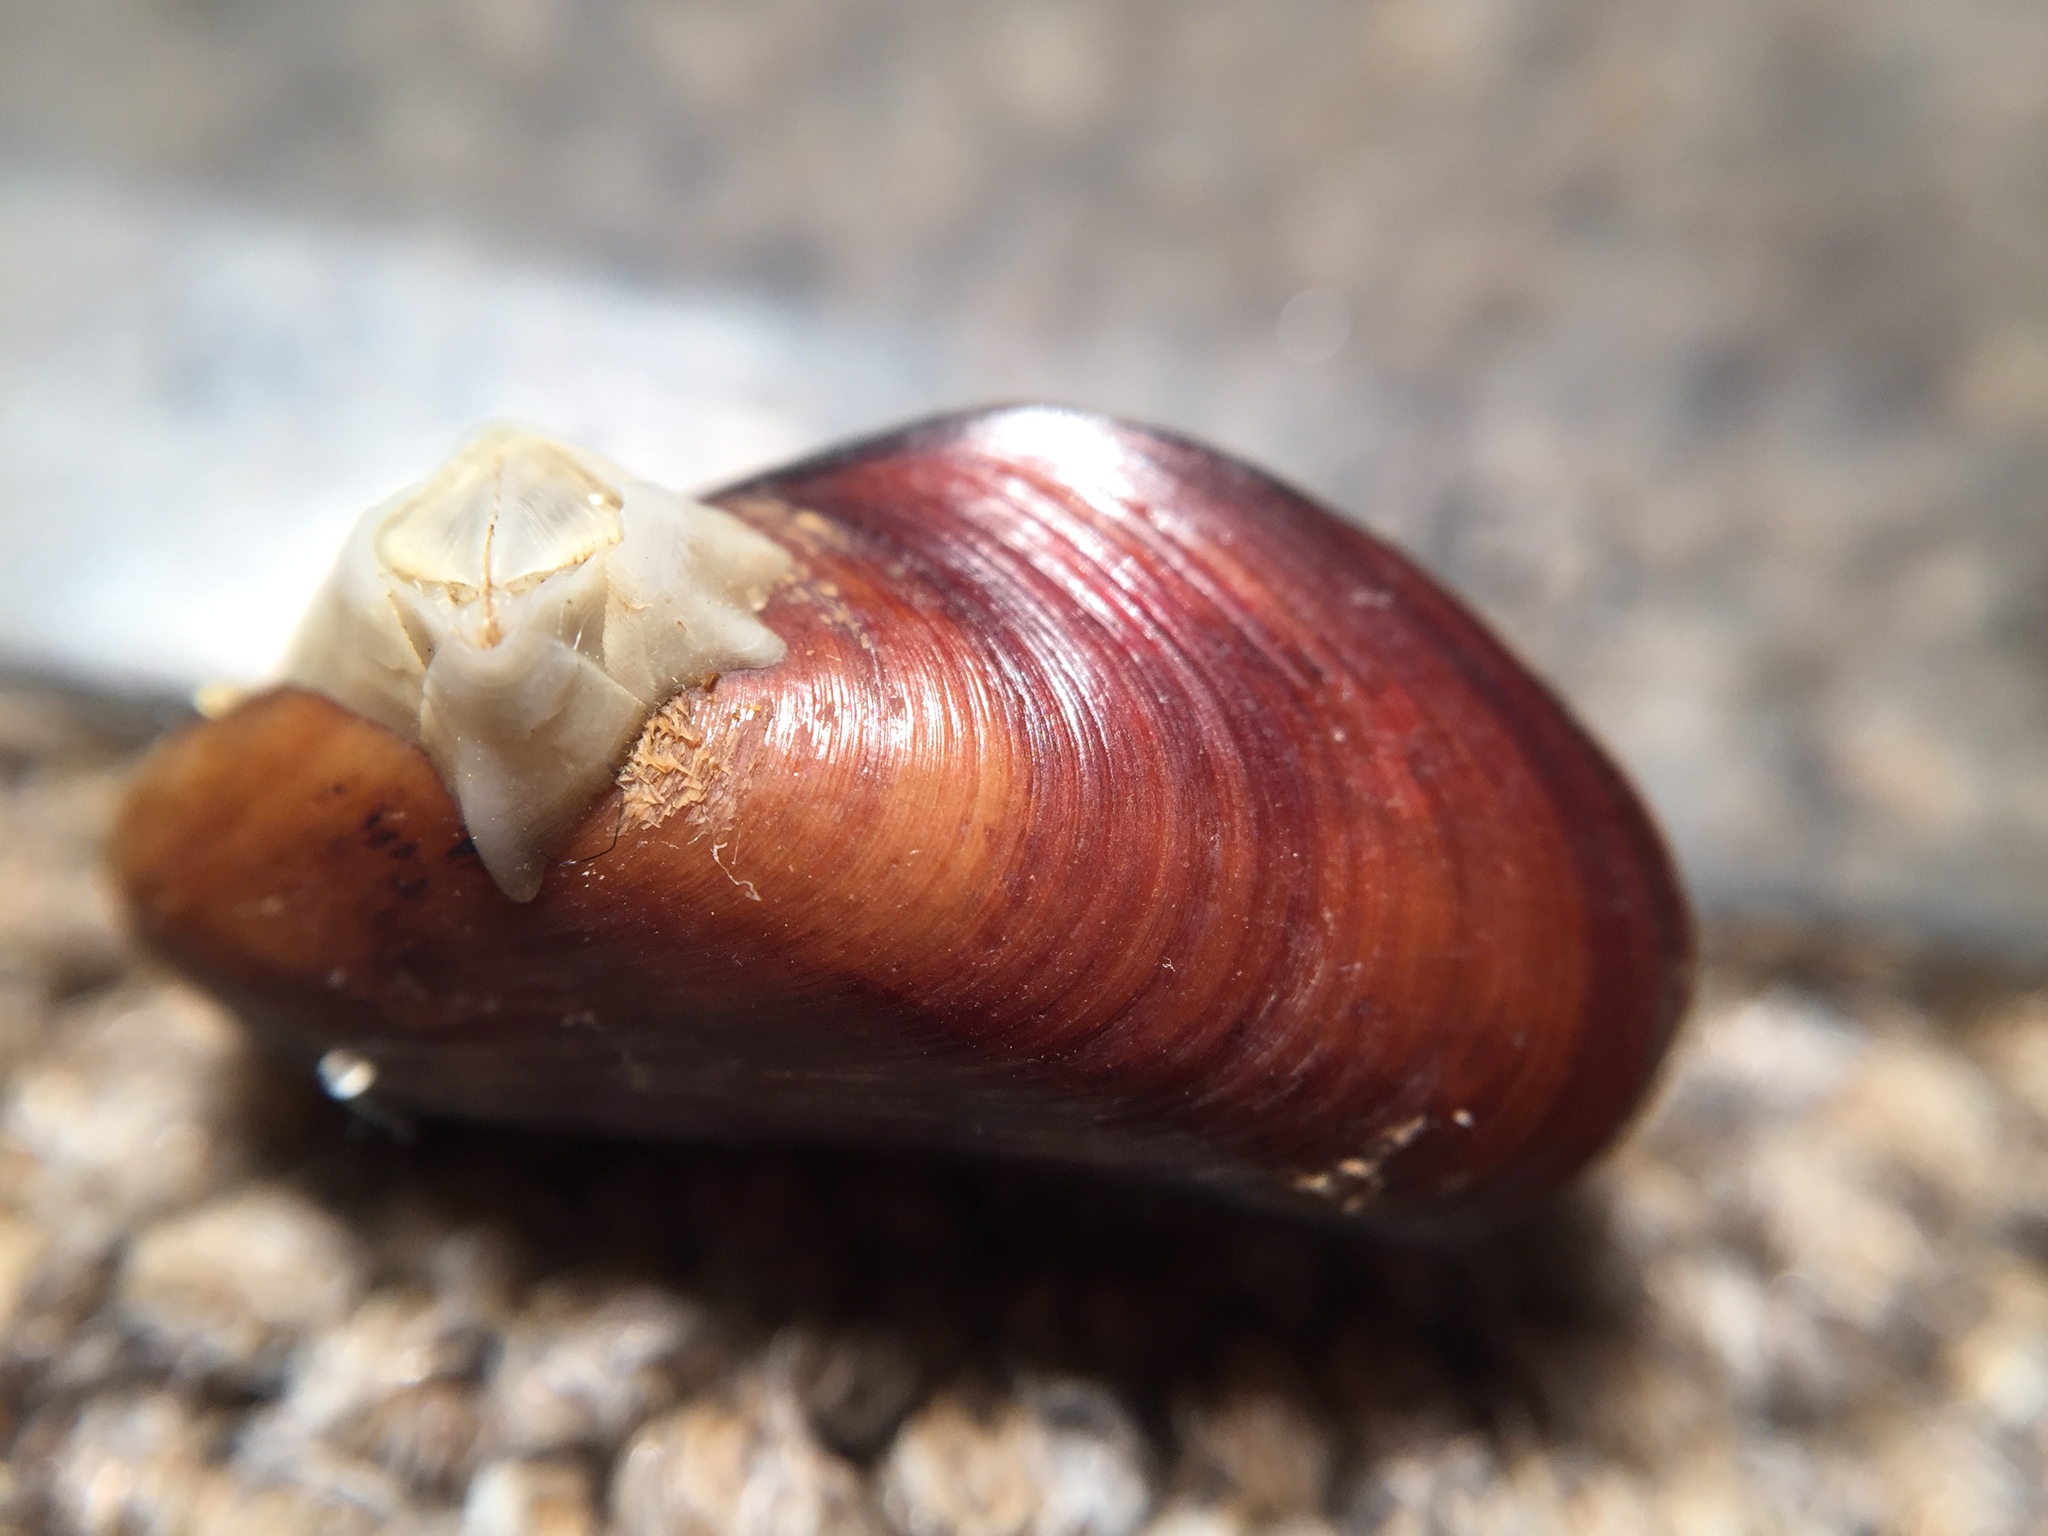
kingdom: Animalia
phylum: Mollusca
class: Bivalvia
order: Mytilida
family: Mytilidae
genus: Xenostrobus
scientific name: Xenostrobus securis
